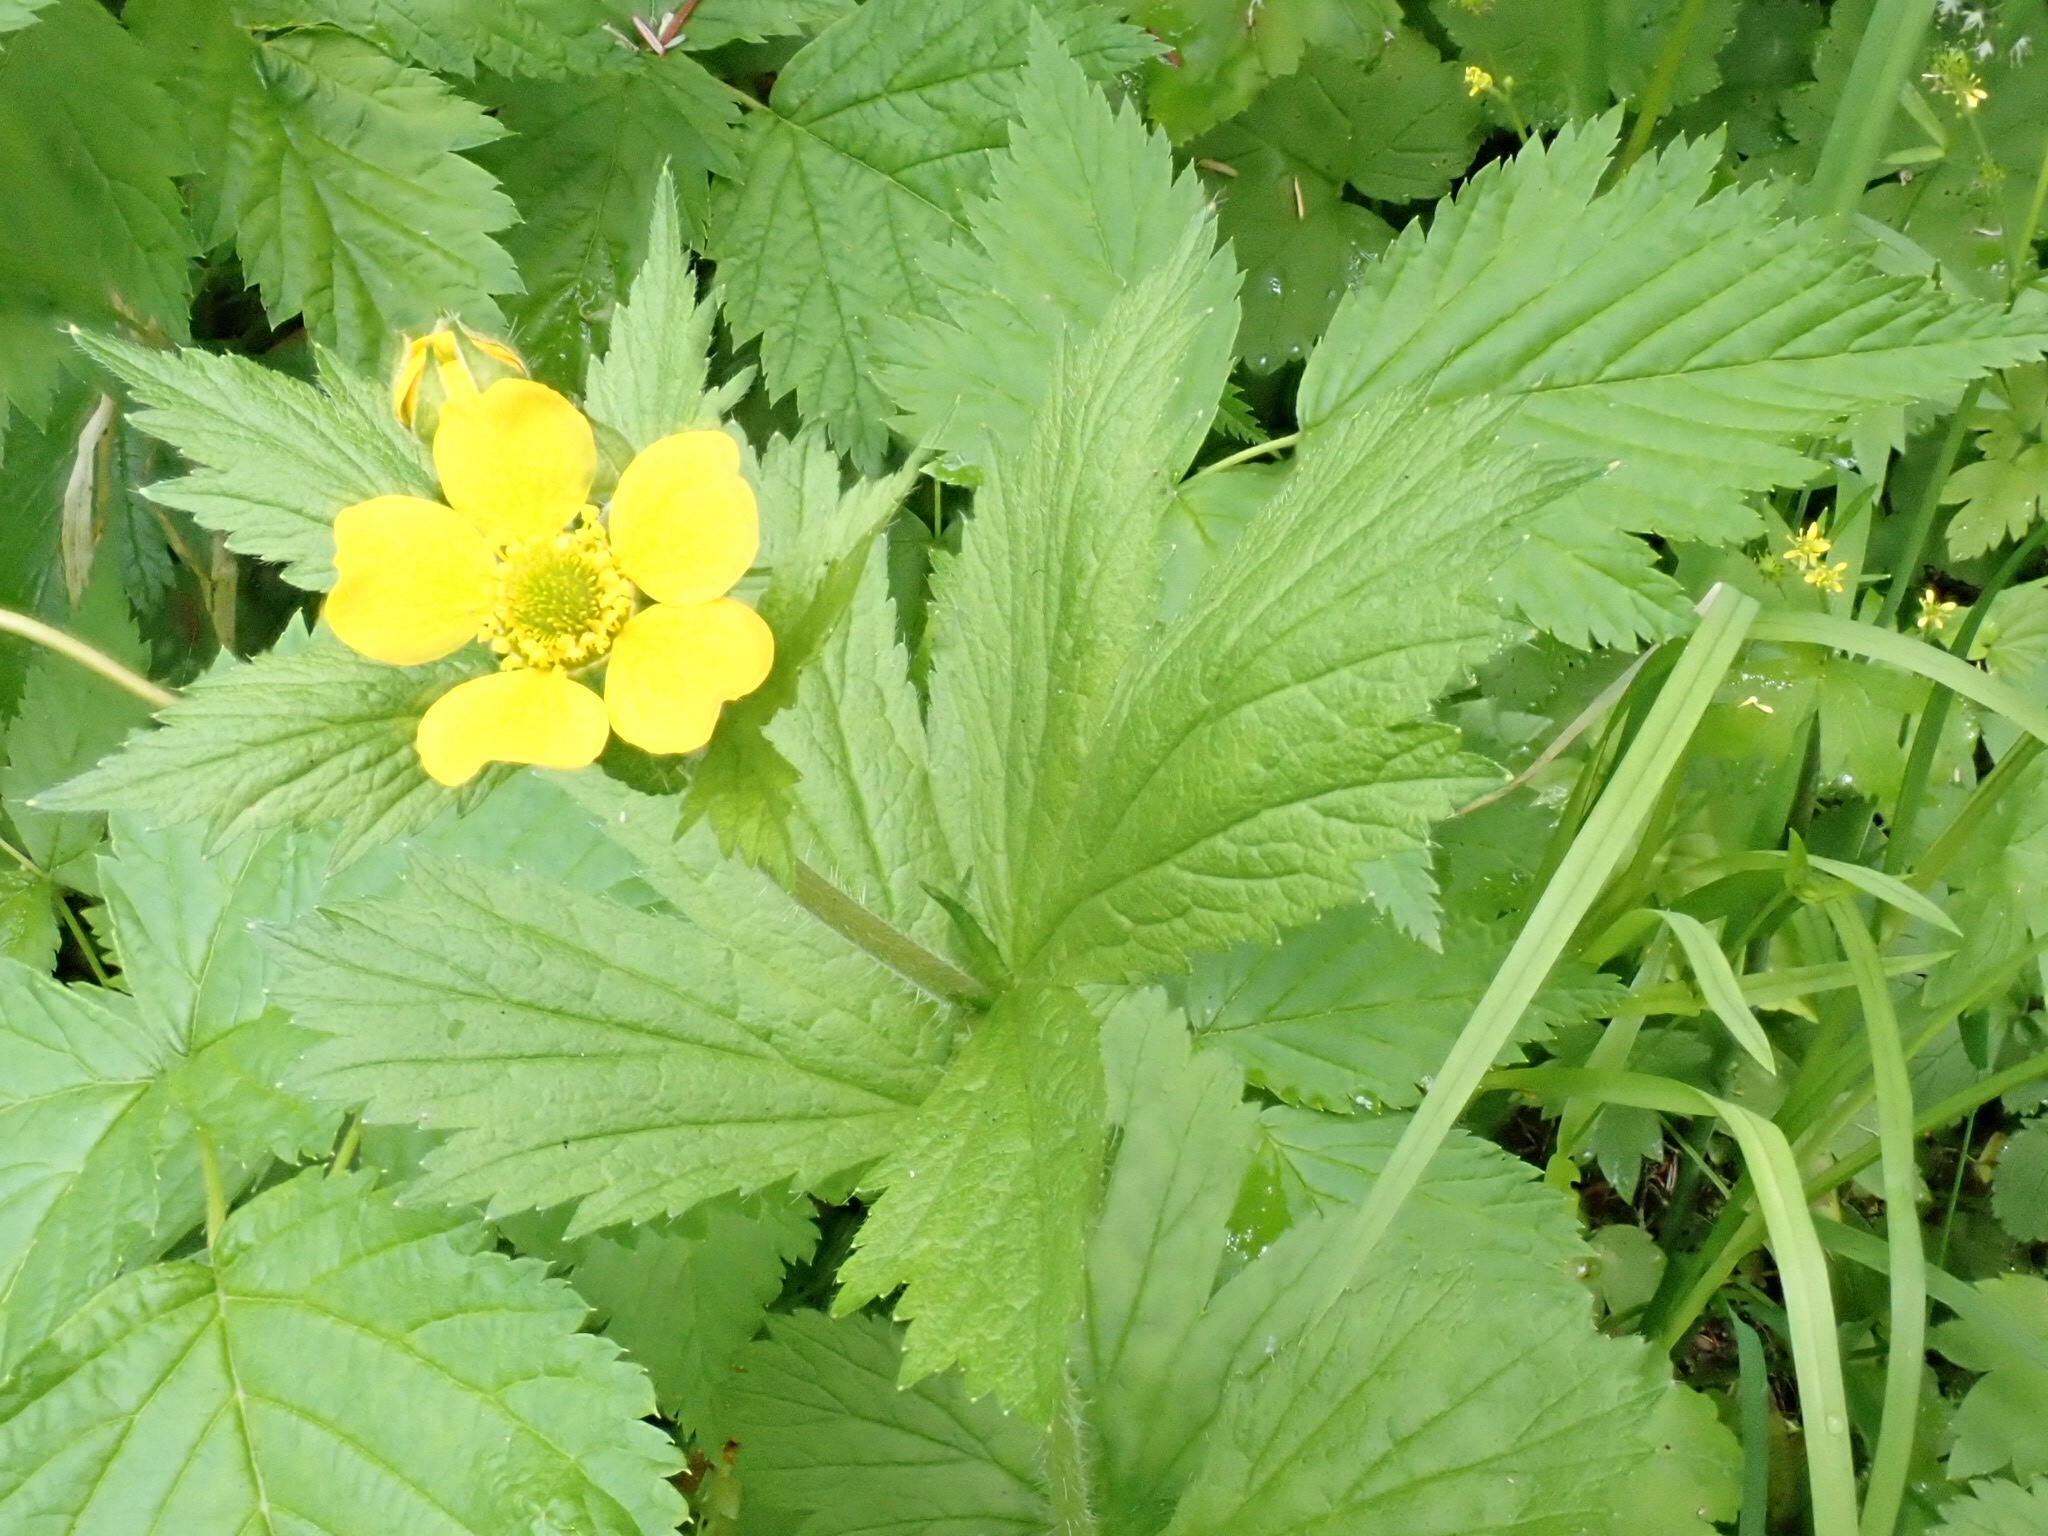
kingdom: Plantae
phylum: Tracheophyta
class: Magnoliopsida
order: Rosales
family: Rosaceae
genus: Geum
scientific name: Geum macrophyllum
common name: Large-leaved avens
